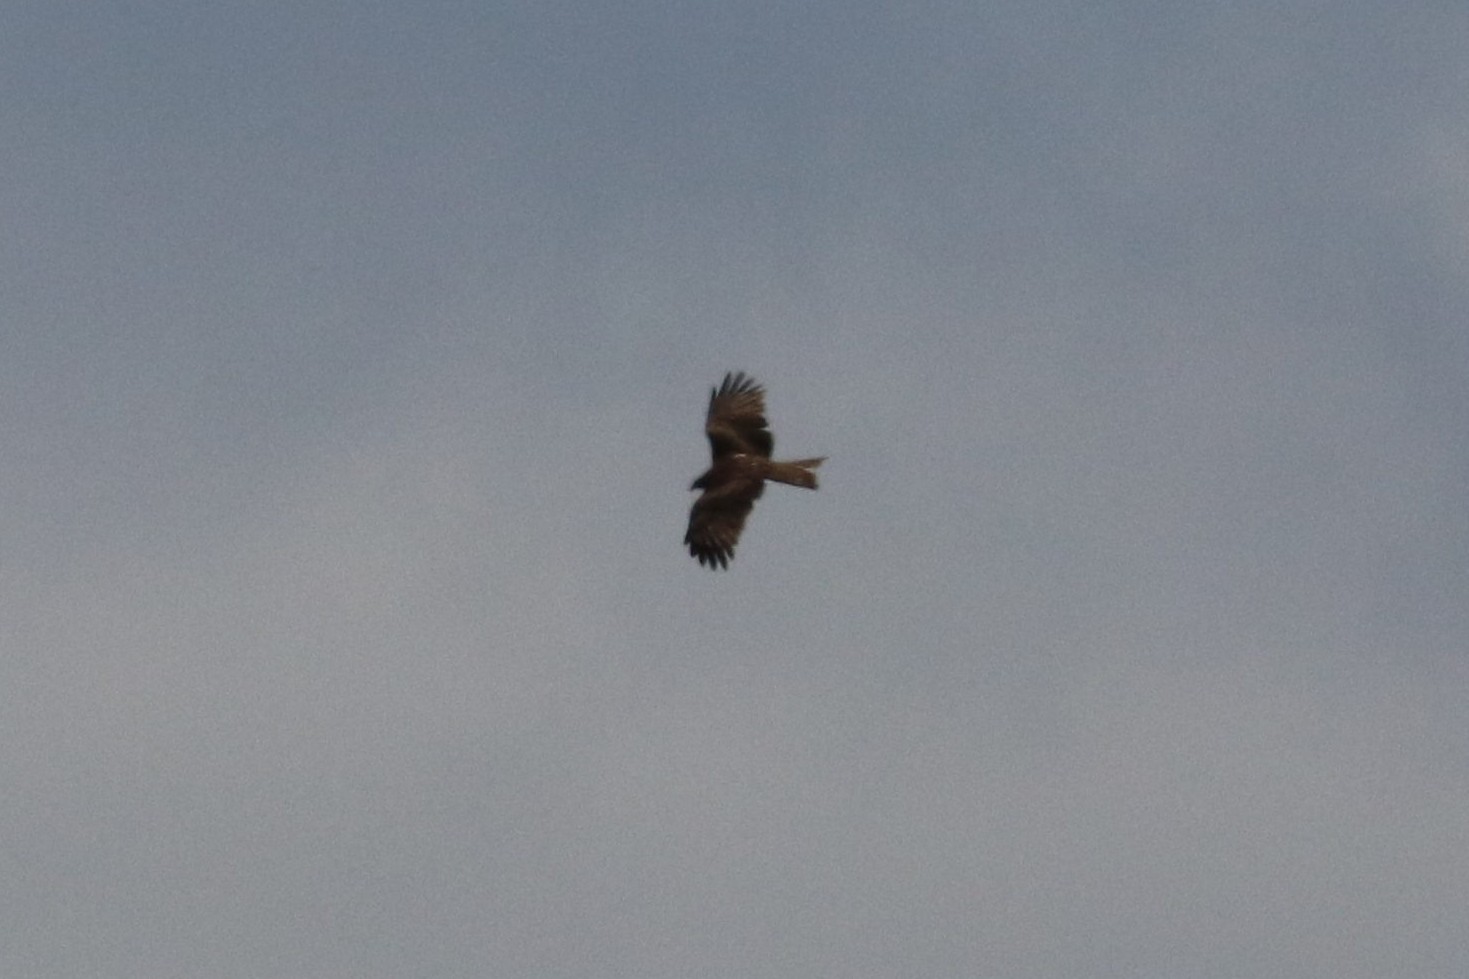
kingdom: Animalia
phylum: Chordata
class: Aves
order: Accipitriformes
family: Accipitridae
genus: Milvus
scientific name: Milvus migrans
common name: Black kite
